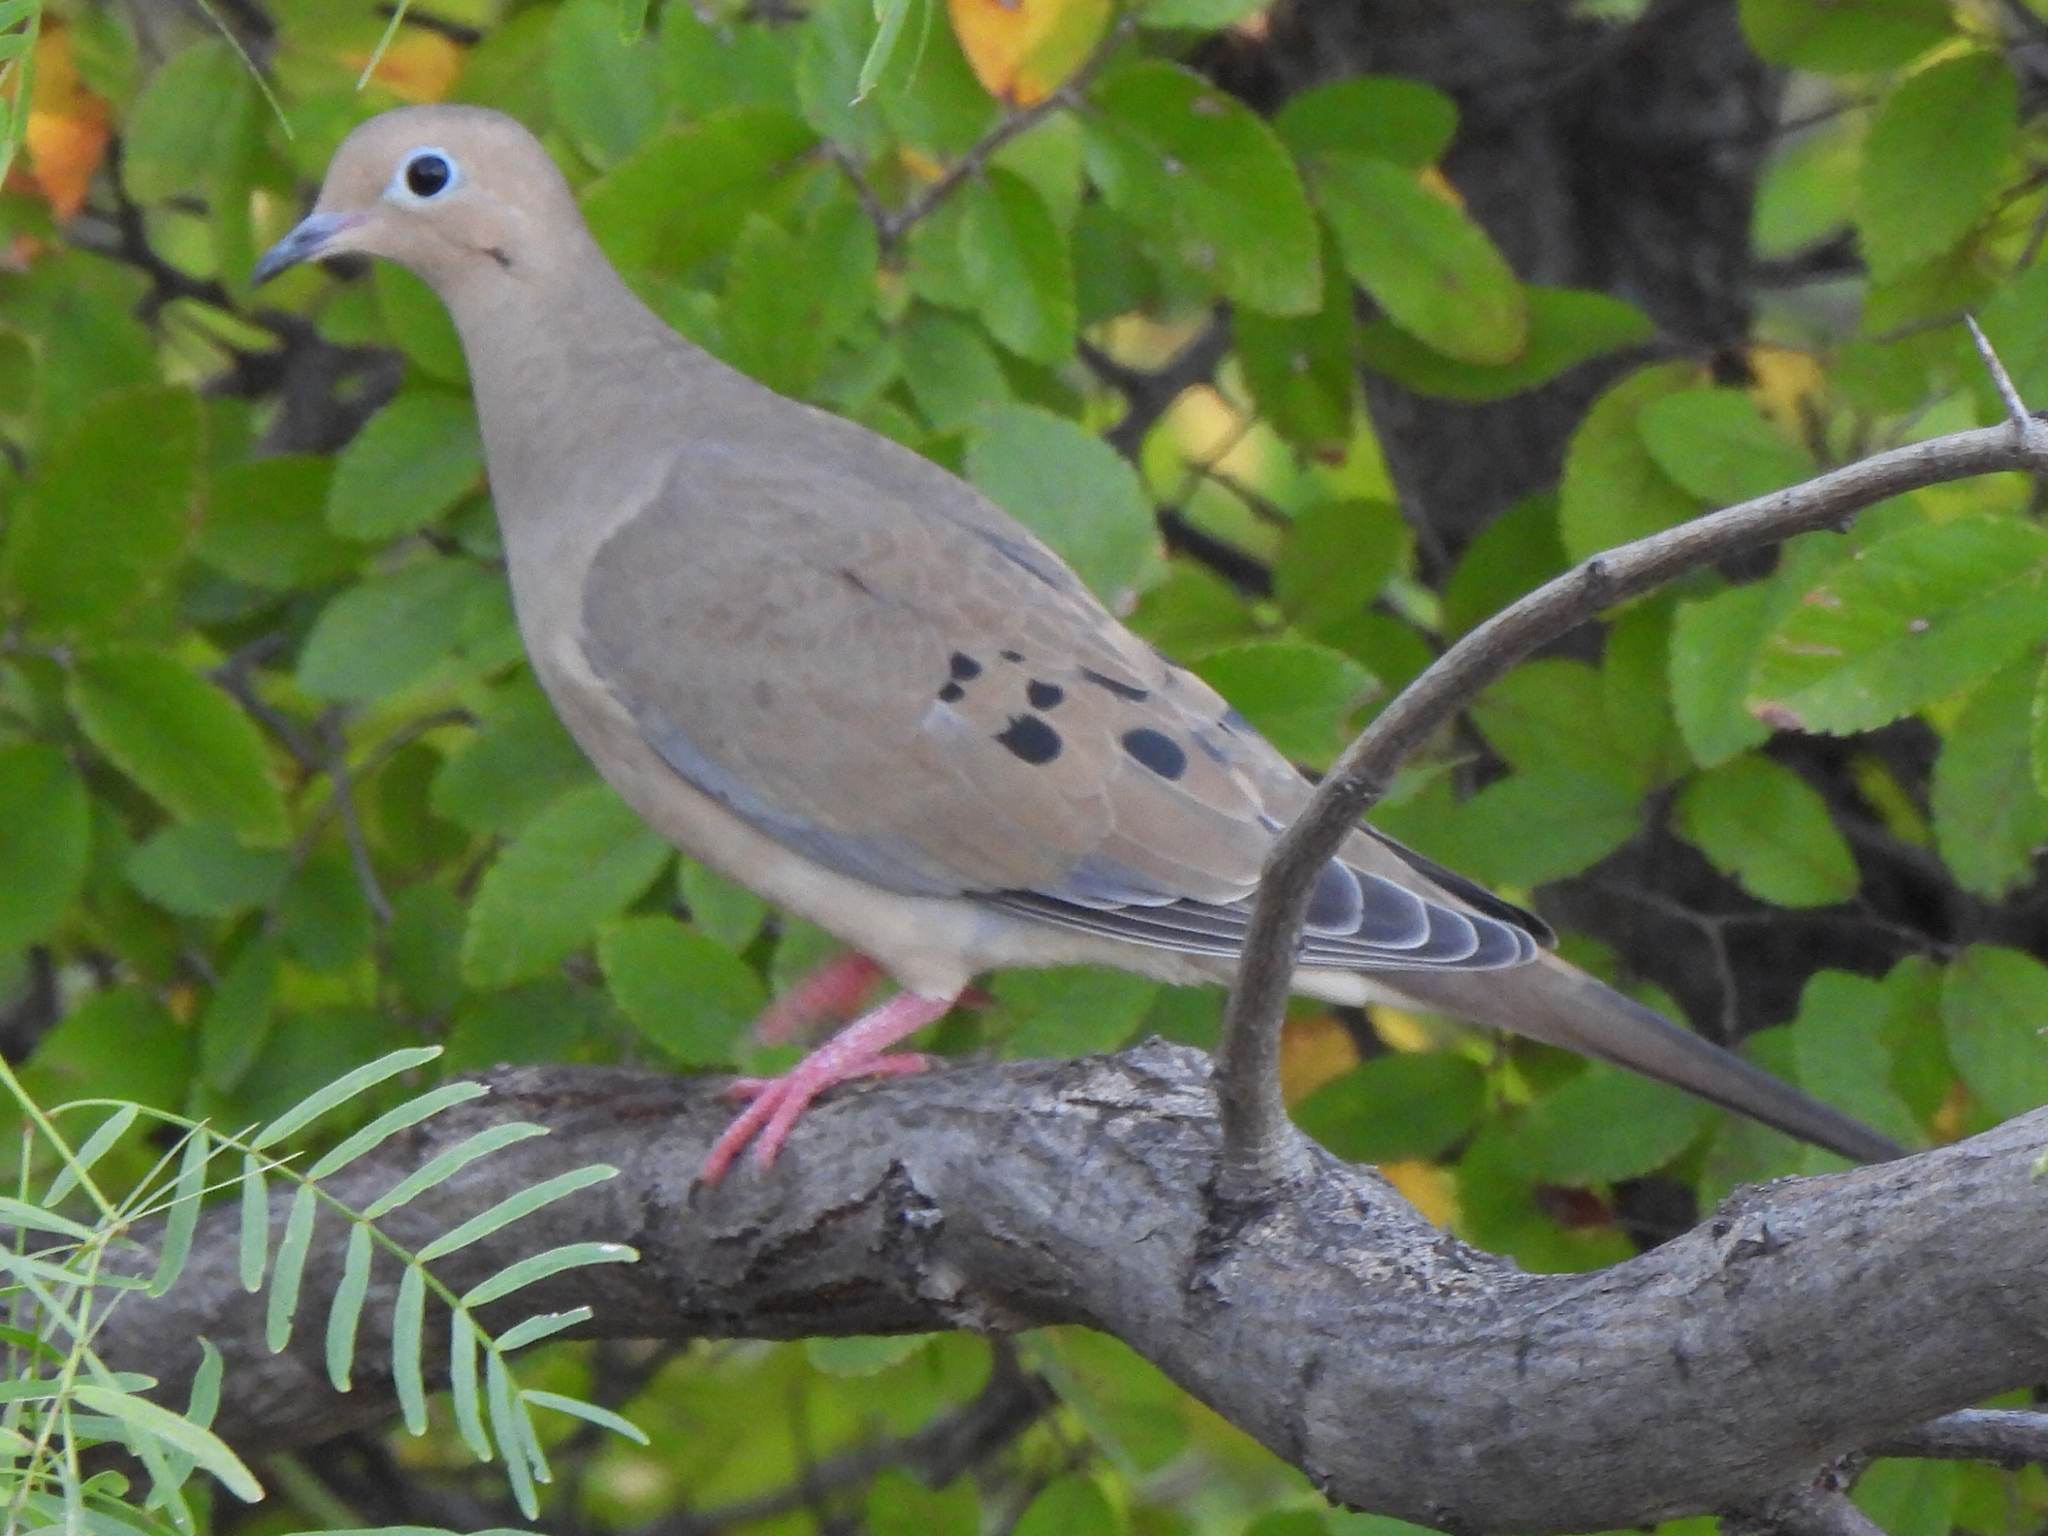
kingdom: Animalia
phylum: Chordata
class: Aves
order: Columbiformes
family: Columbidae
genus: Zenaida
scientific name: Zenaida macroura
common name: Mourning dove
